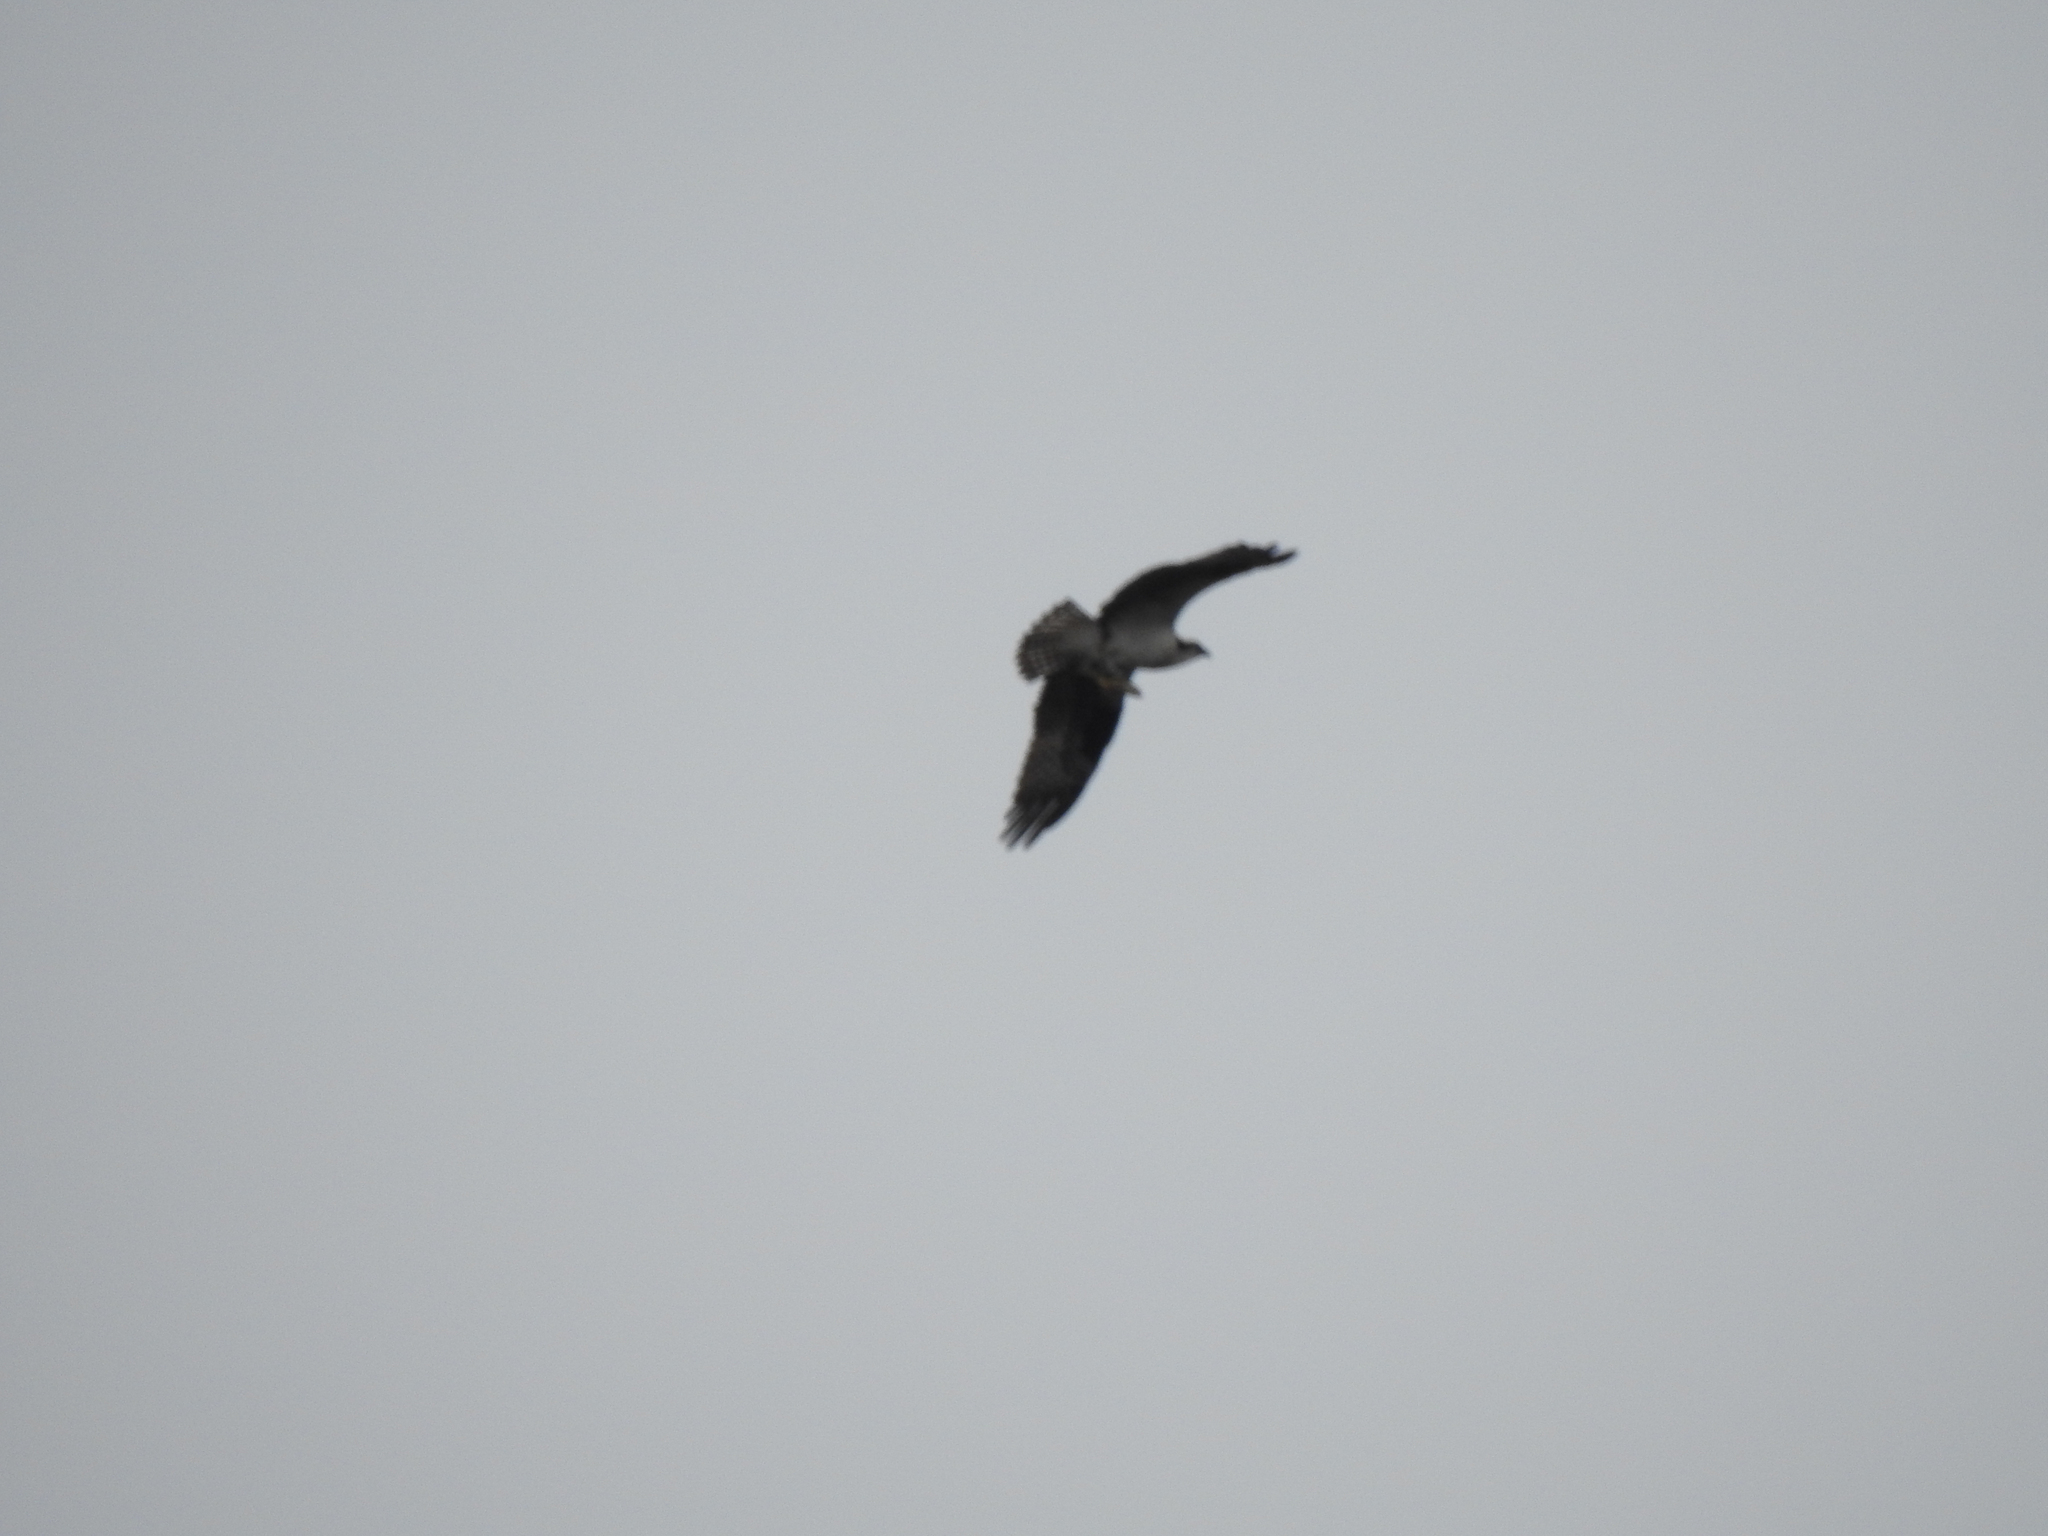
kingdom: Animalia
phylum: Chordata
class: Aves
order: Accipitriformes
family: Pandionidae
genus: Pandion
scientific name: Pandion haliaetus
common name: Osprey
